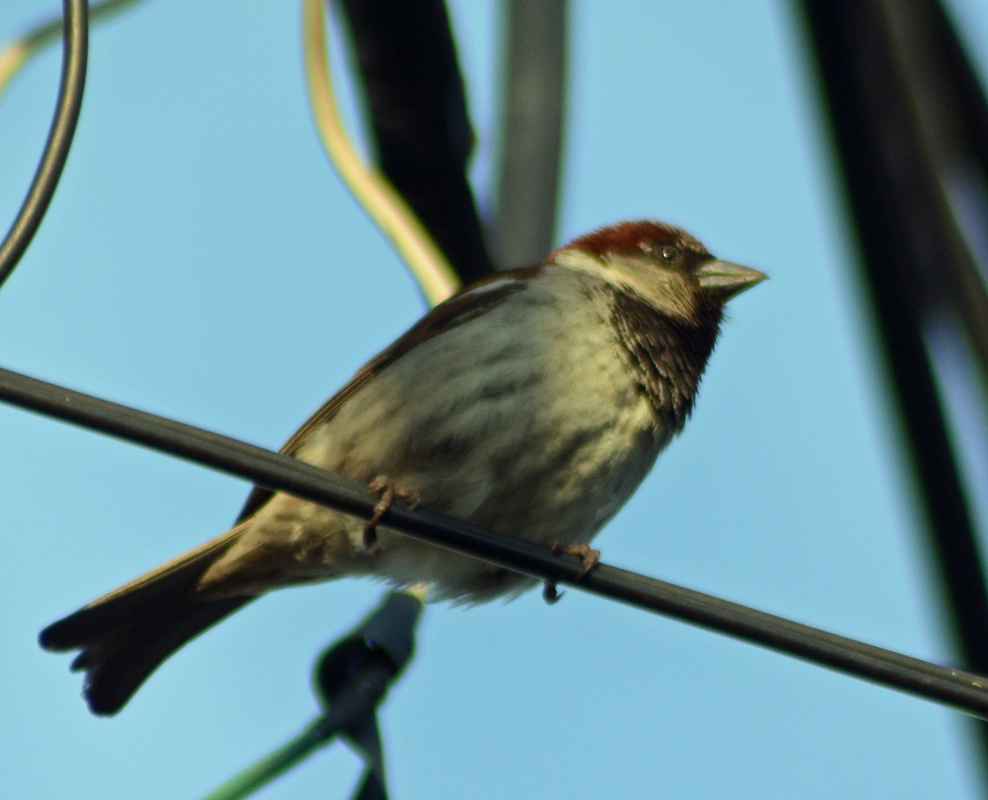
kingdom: Animalia
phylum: Chordata
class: Aves
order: Passeriformes
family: Passeridae
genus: Passer
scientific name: Passer domesticus
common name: House sparrow
